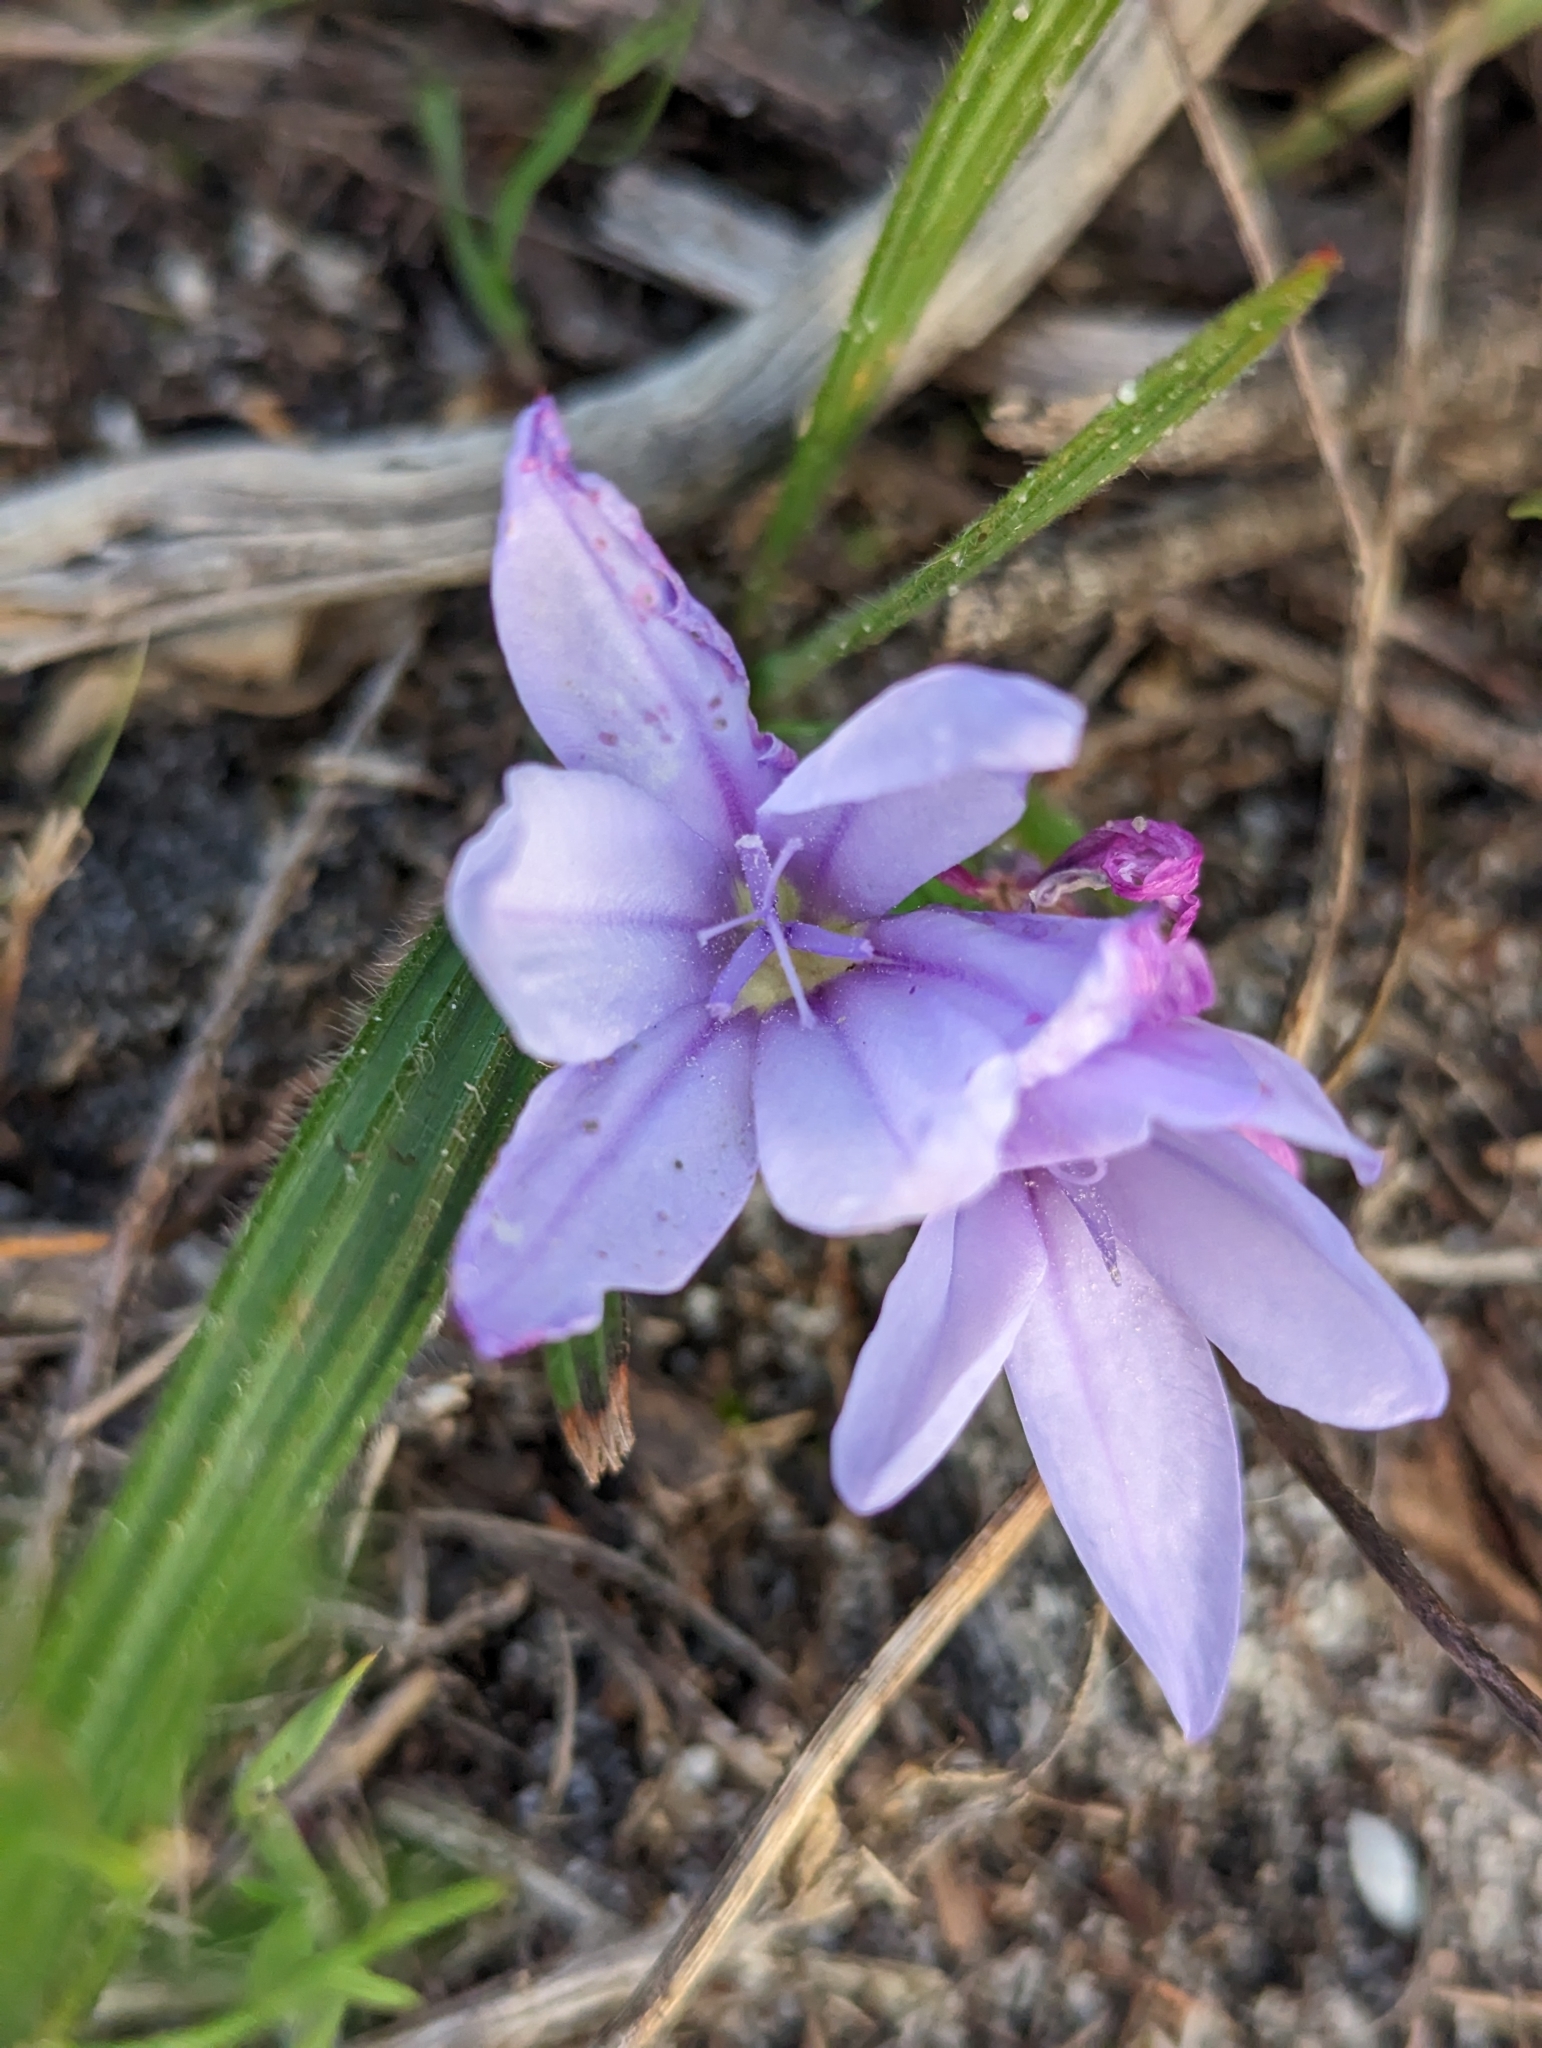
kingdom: Plantae
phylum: Tracheophyta
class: Liliopsida
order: Asparagales
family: Iridaceae
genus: Babiana
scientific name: Babiana villosula
